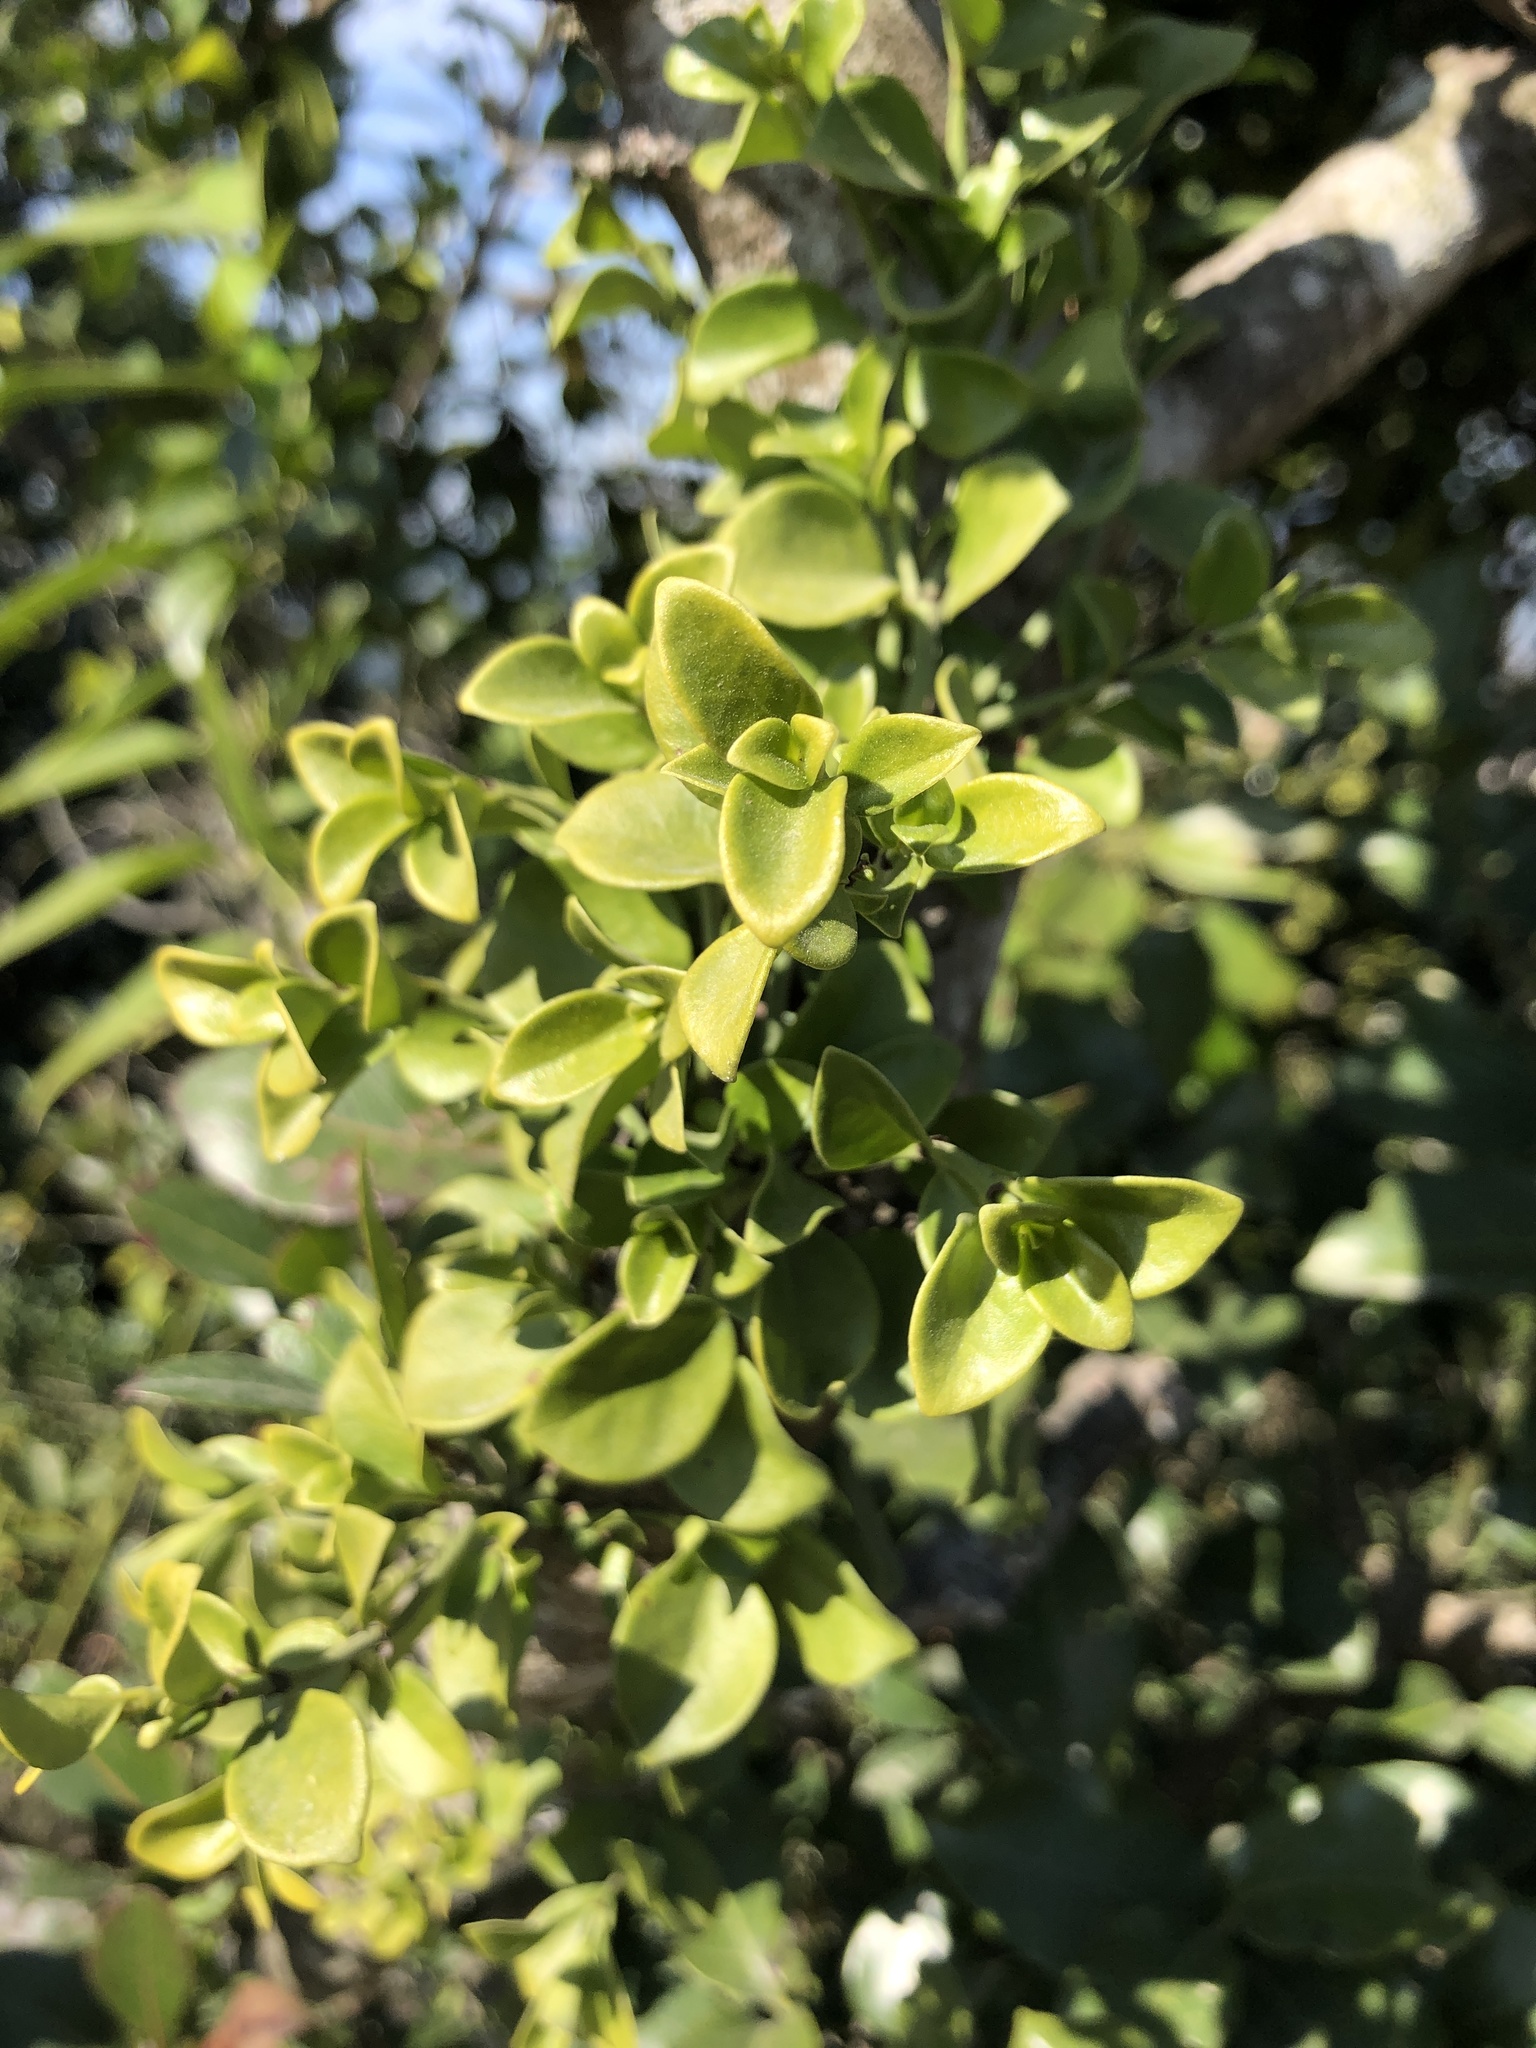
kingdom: Plantae
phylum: Tracheophyta
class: Magnoliopsida
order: Gentianales
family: Rubiaceae
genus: Psychotria
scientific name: Psychotria serpens
